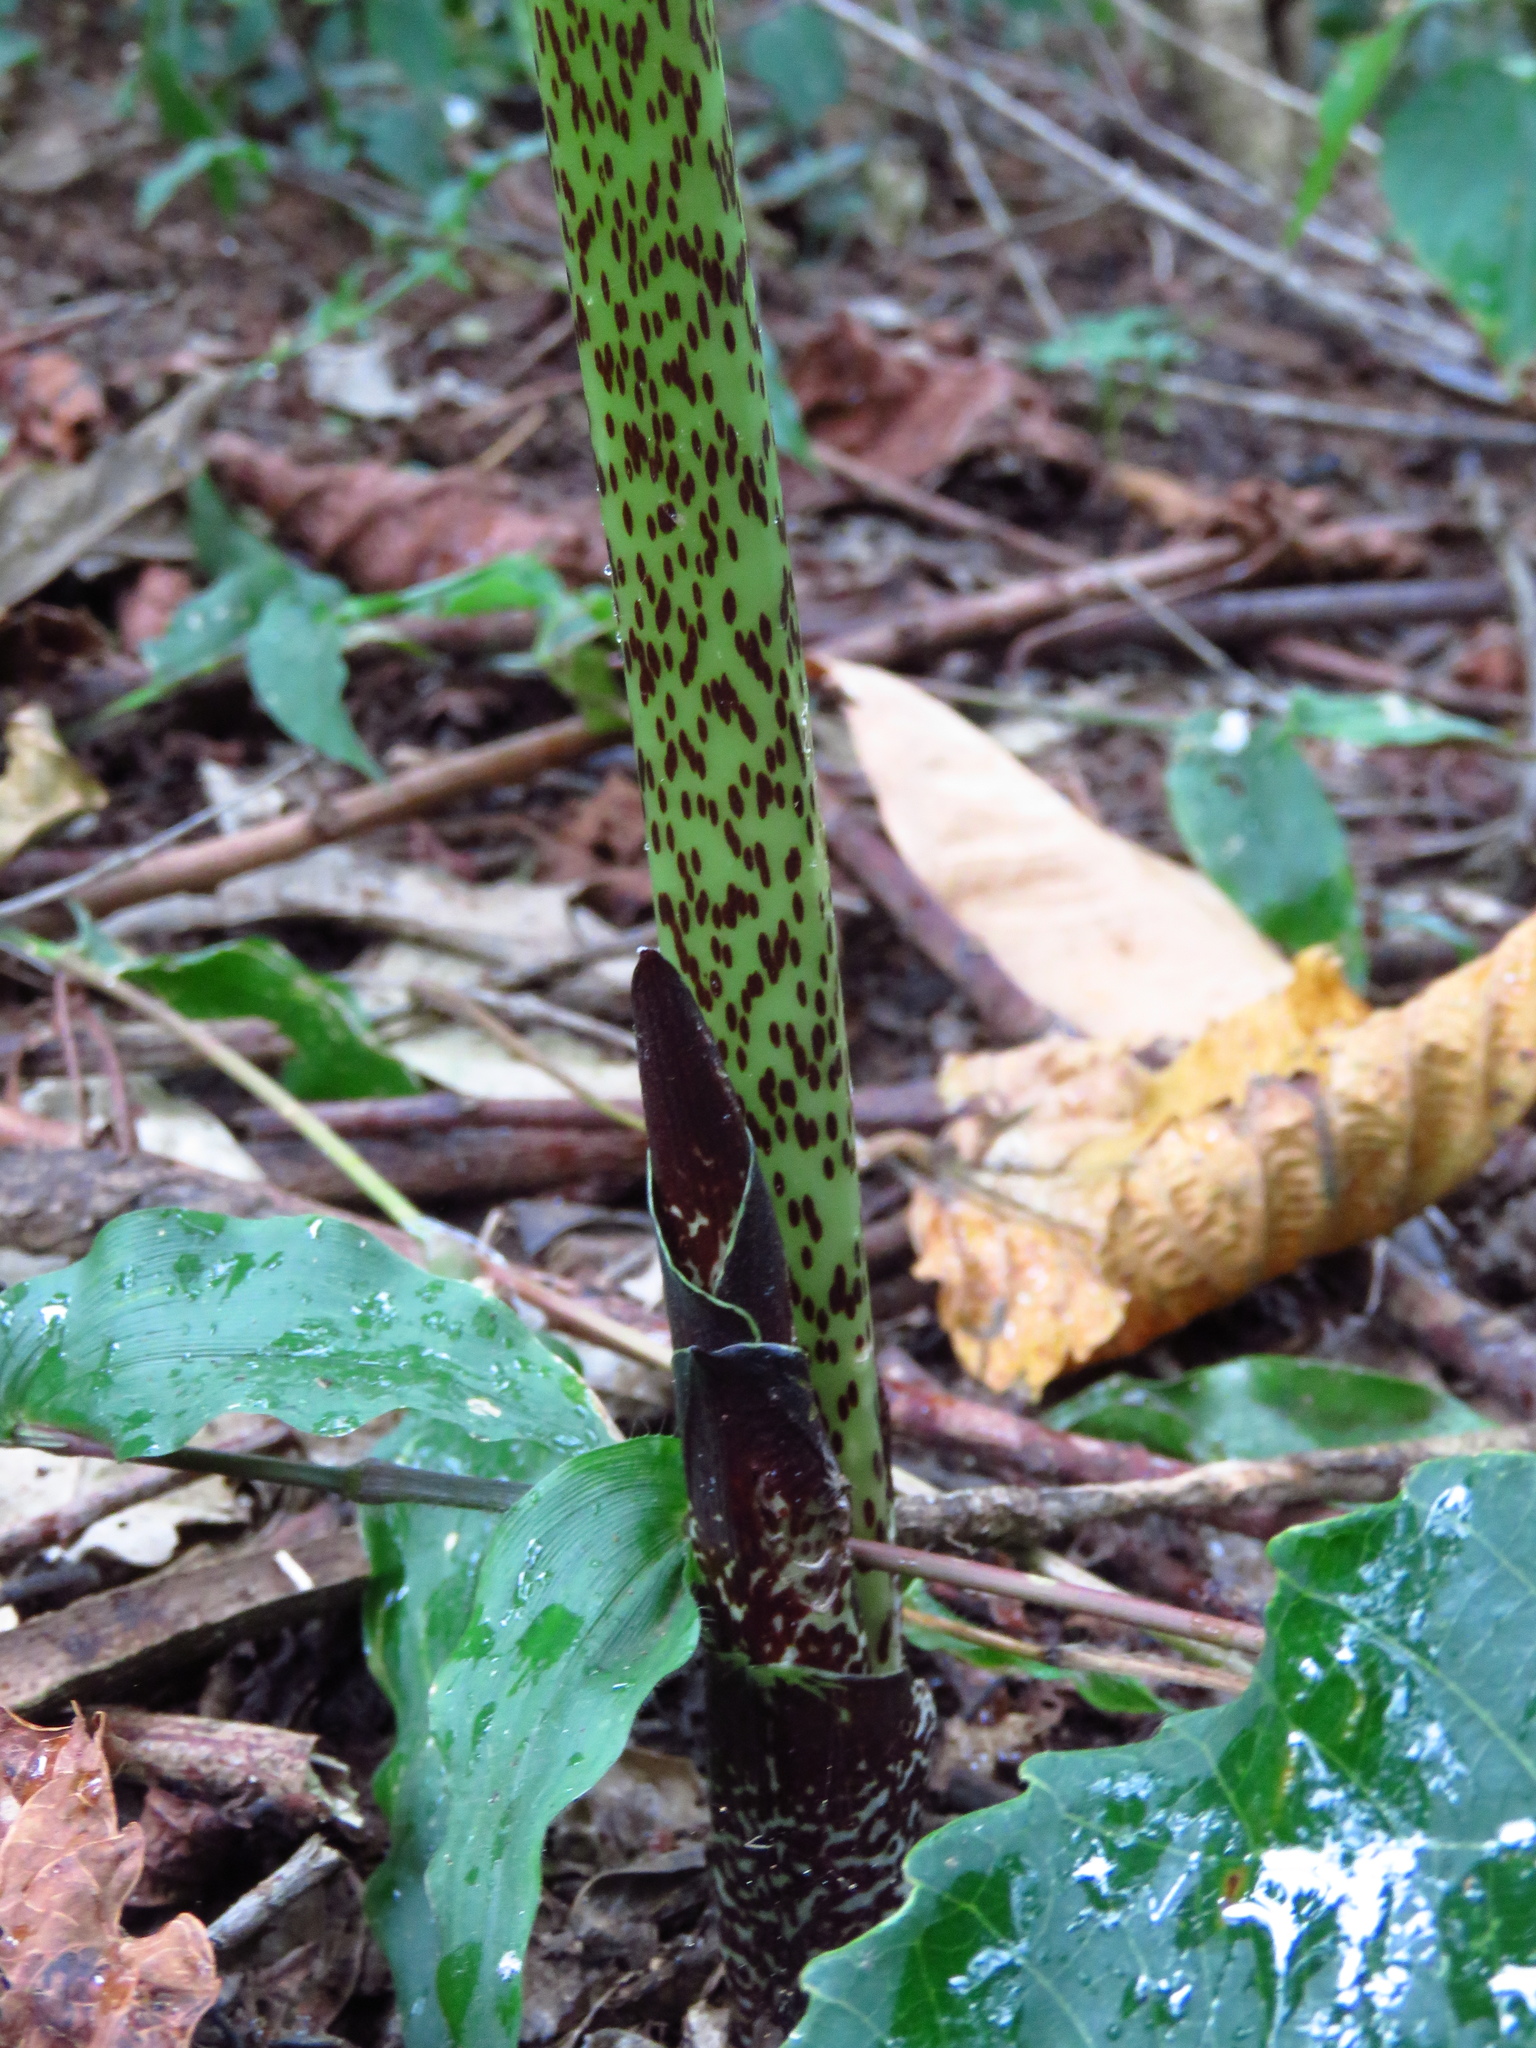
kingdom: Plantae
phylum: Tracheophyta
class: Liliopsida
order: Asparagales
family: Amaryllidaceae
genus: Scadoxus
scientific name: Scadoxus multiflorus
